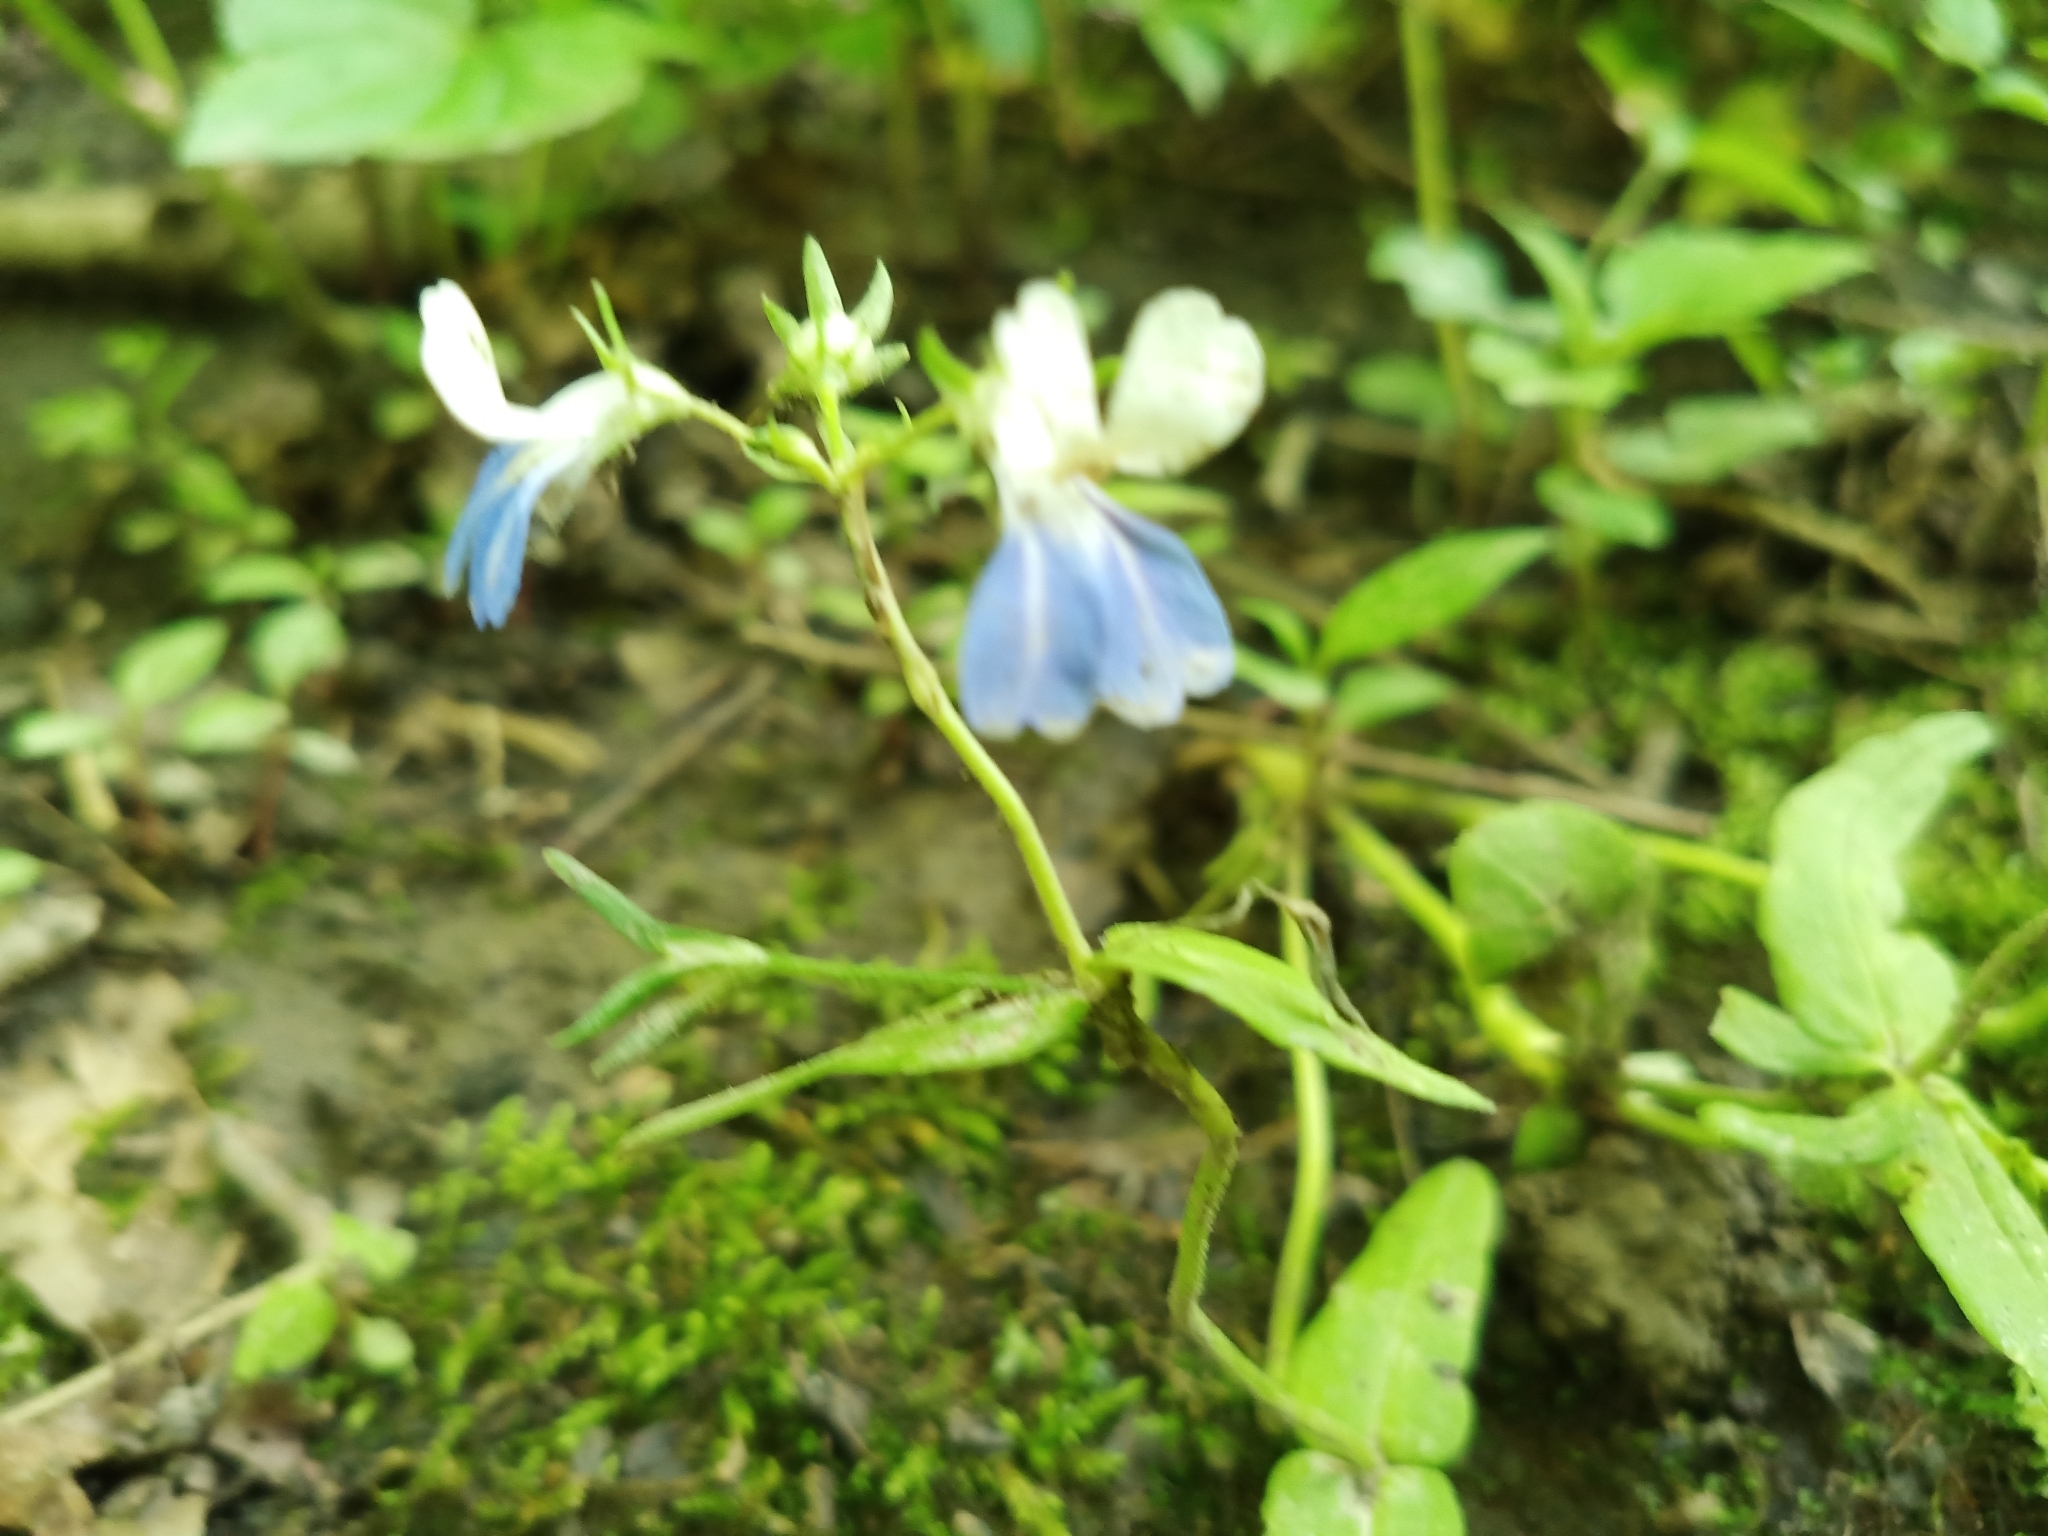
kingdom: Plantae
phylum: Tracheophyta
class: Magnoliopsida
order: Lamiales
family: Plantaginaceae
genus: Collinsia
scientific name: Collinsia verna
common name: Broad-leaved collinsia
